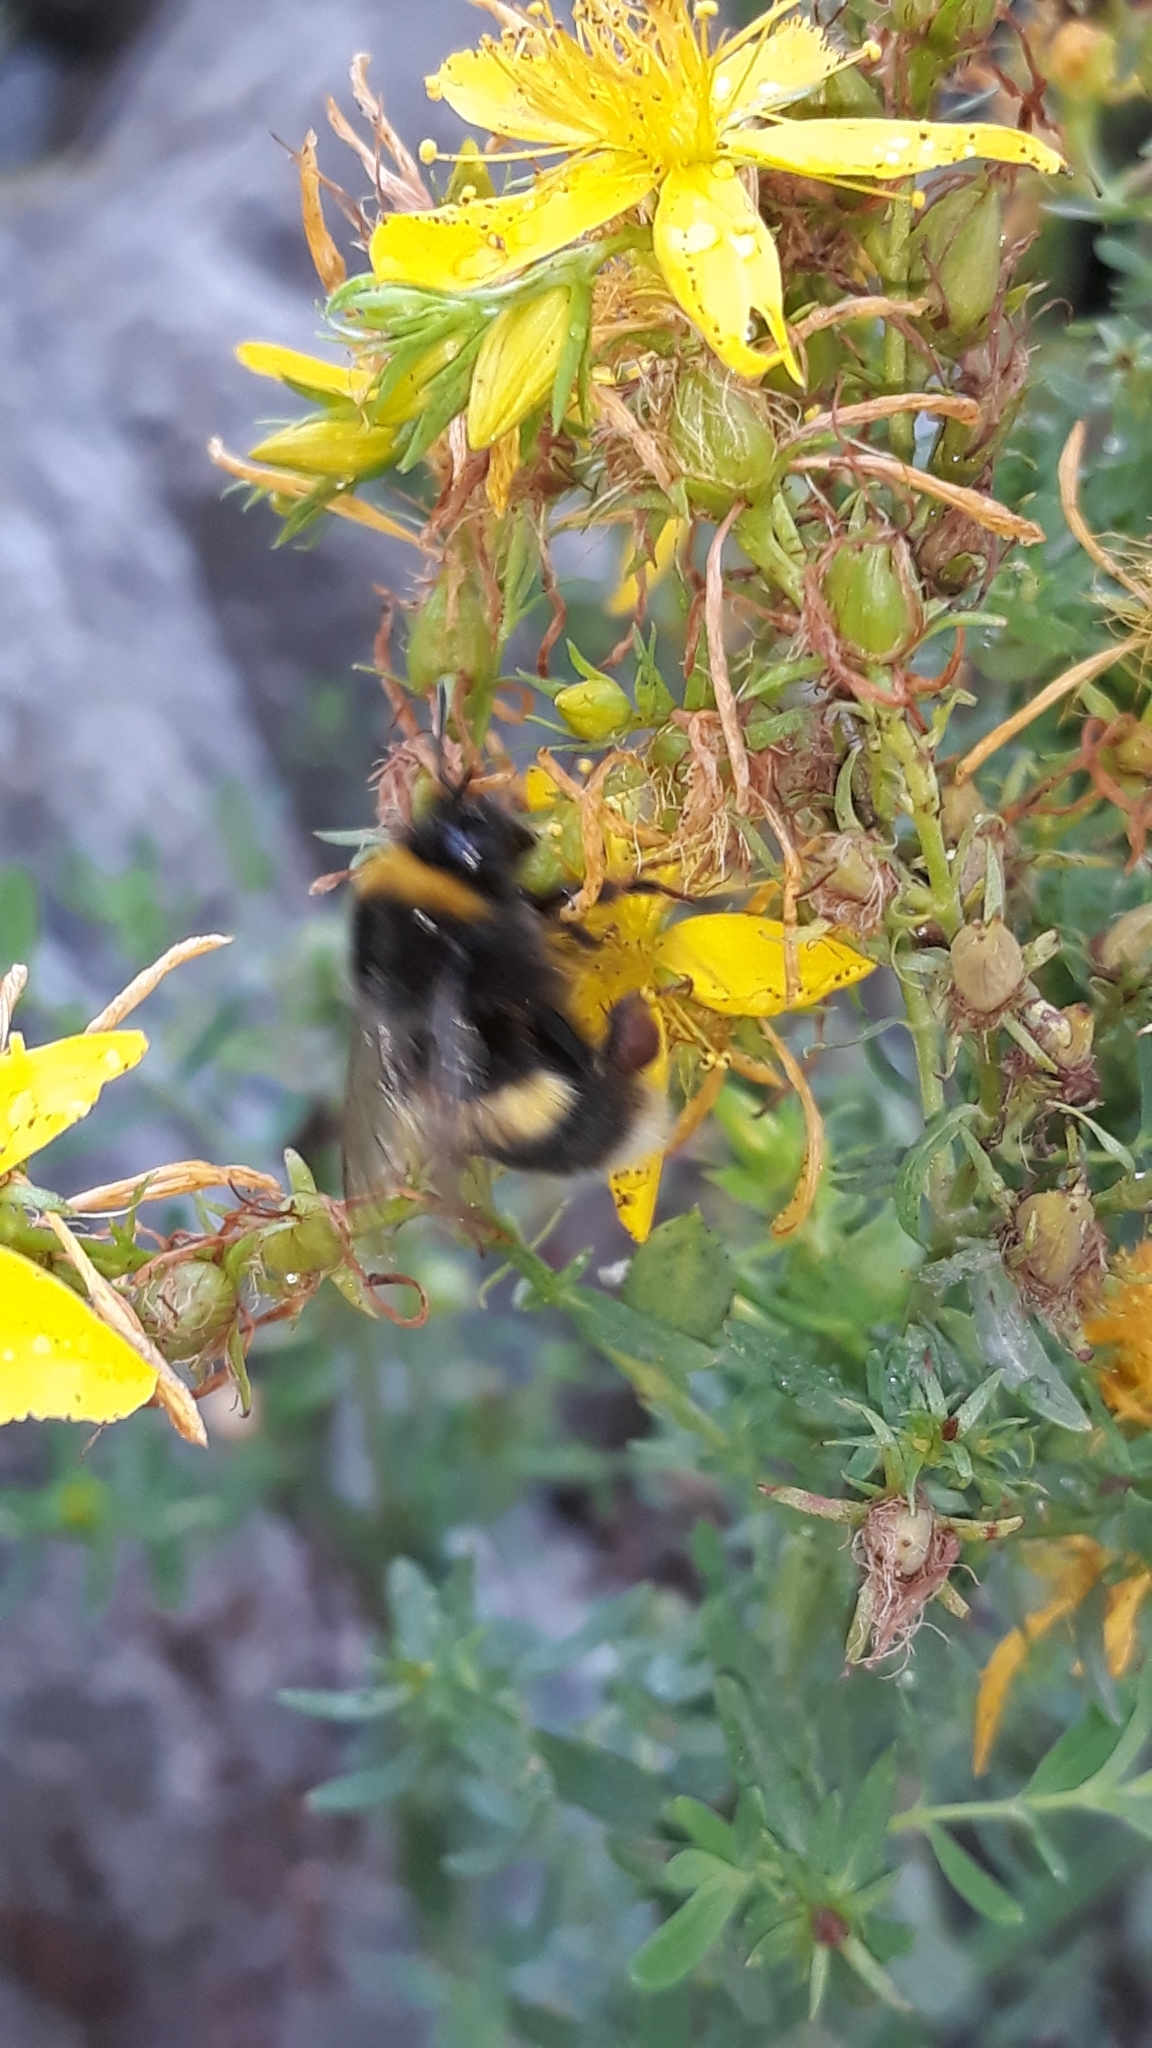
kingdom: Animalia
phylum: Arthropoda
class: Insecta
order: Hymenoptera
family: Apidae
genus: Bombus
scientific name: Bombus terrestris
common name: Buff-tailed bumblebee
